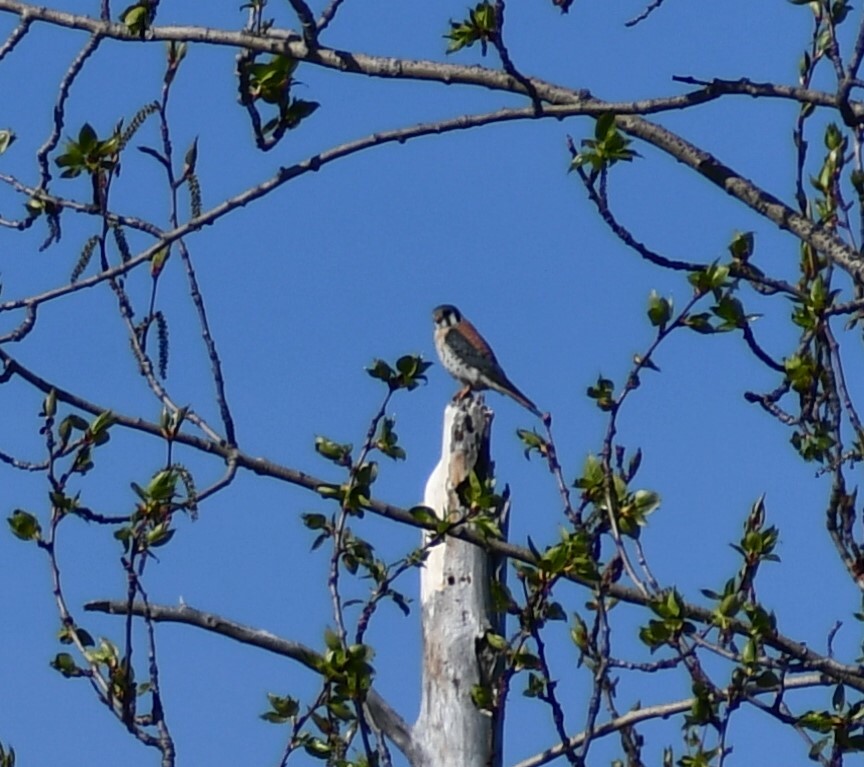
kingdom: Animalia
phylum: Chordata
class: Aves
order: Falconiformes
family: Falconidae
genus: Falco
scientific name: Falco sparverius
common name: American kestrel
